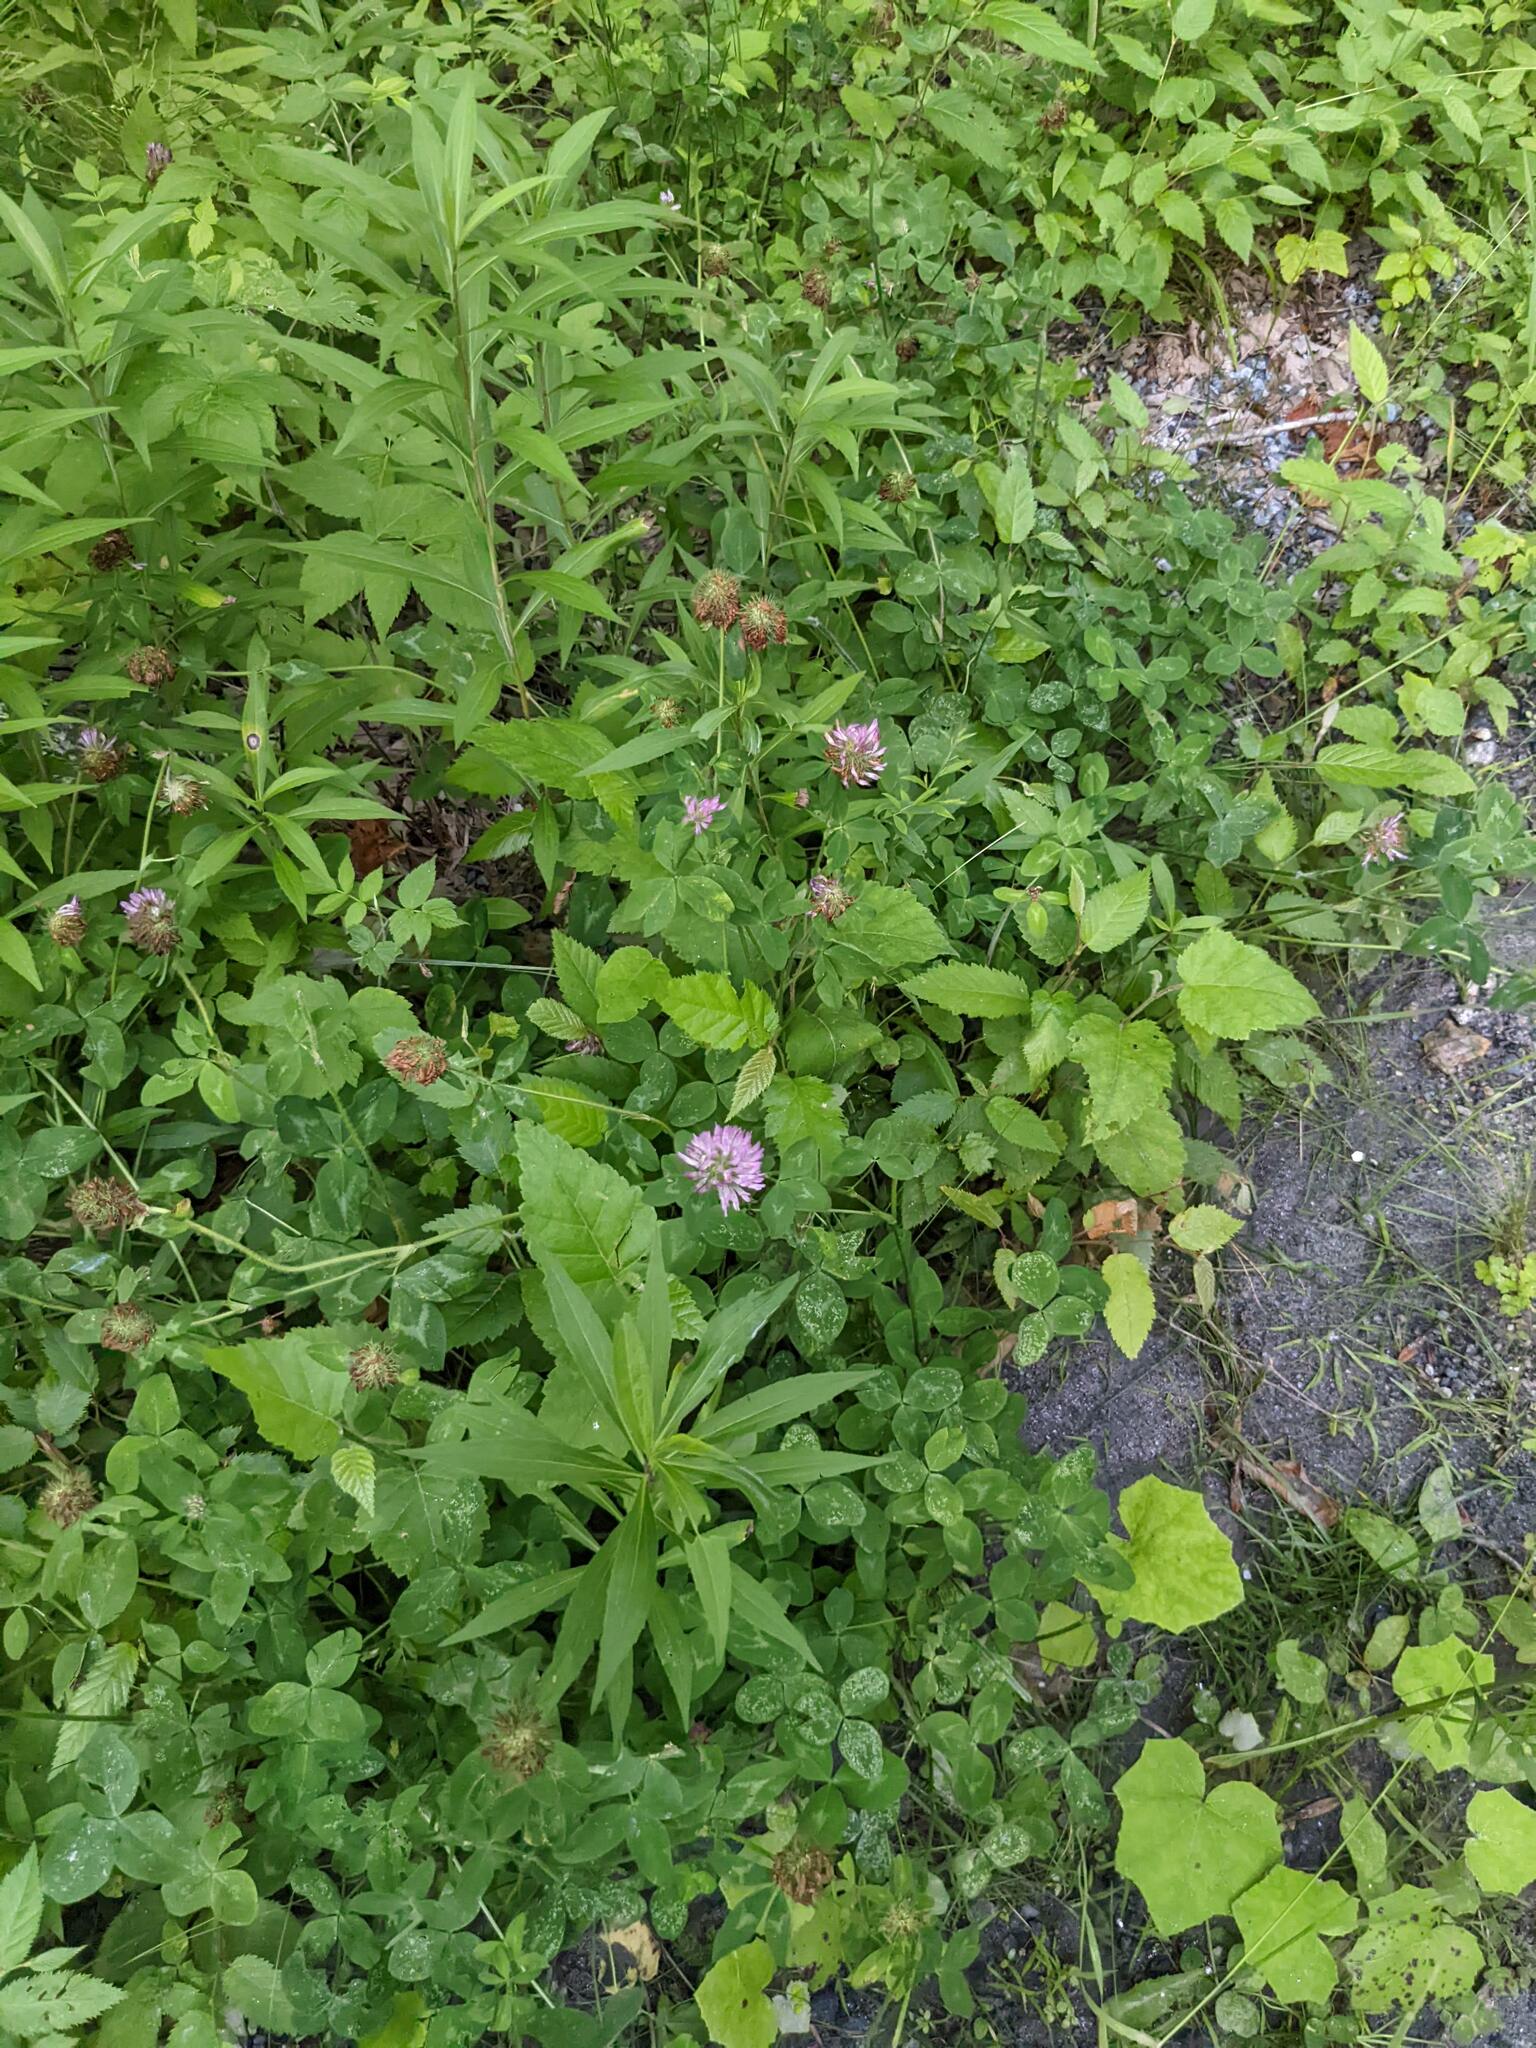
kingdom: Plantae
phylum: Tracheophyta
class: Magnoliopsida
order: Fabales
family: Fabaceae
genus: Trifolium
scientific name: Trifolium pratense
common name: Red clover
